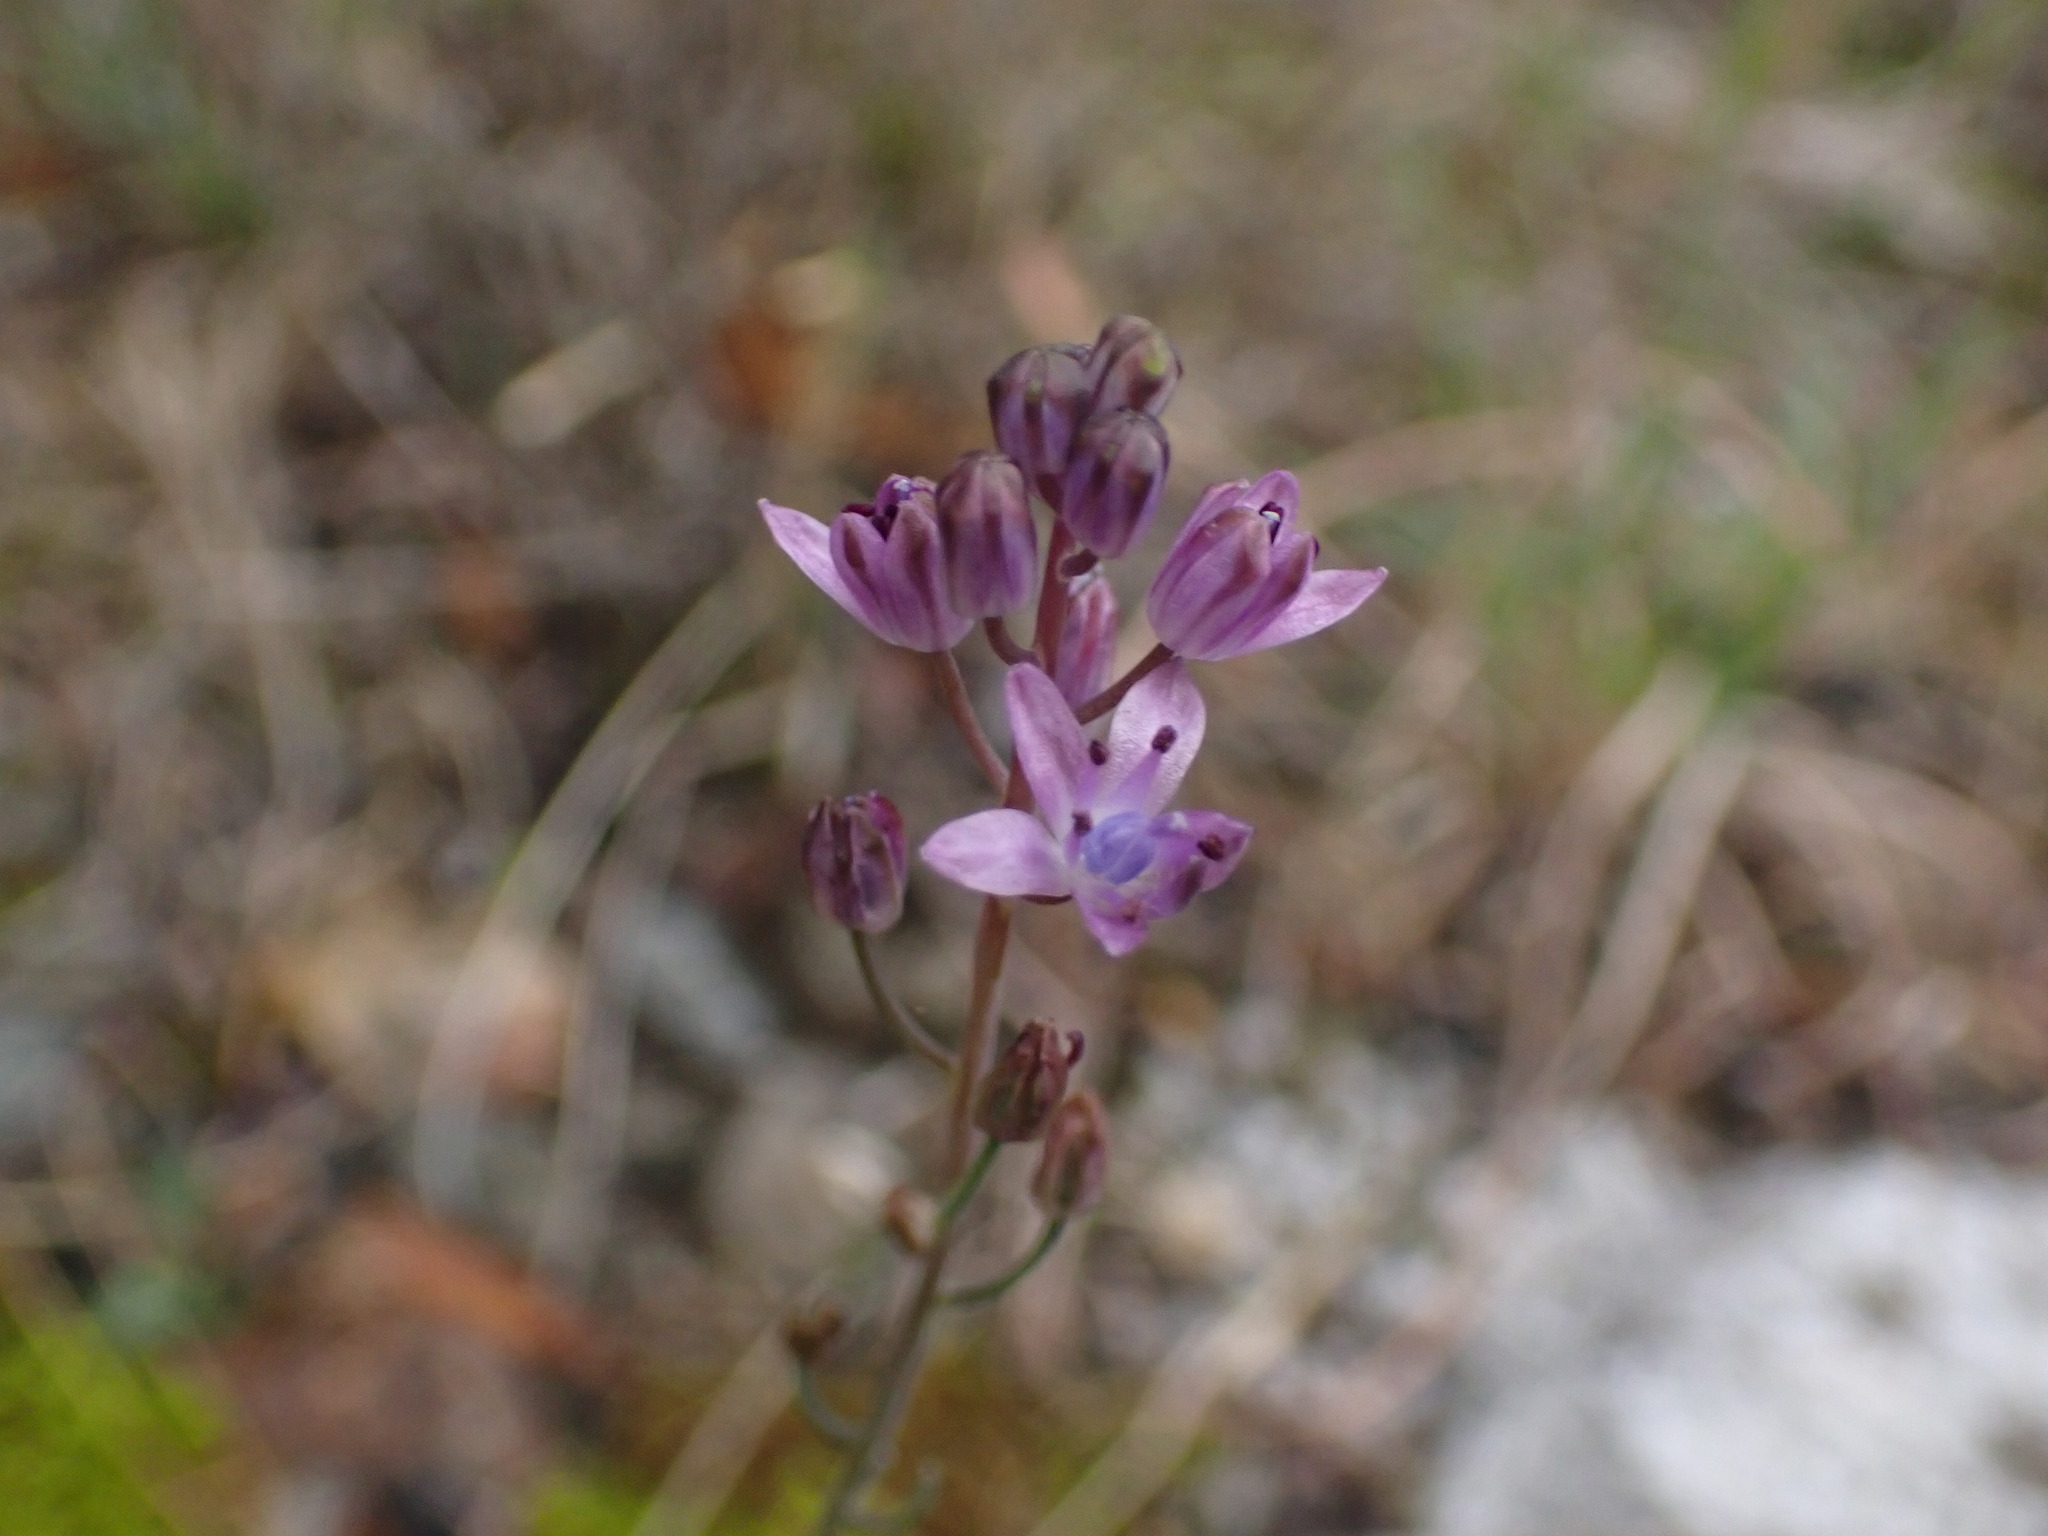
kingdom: Plantae
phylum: Tracheophyta
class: Liliopsida
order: Asparagales
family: Asparagaceae
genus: Prospero
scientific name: Prospero autumnale
